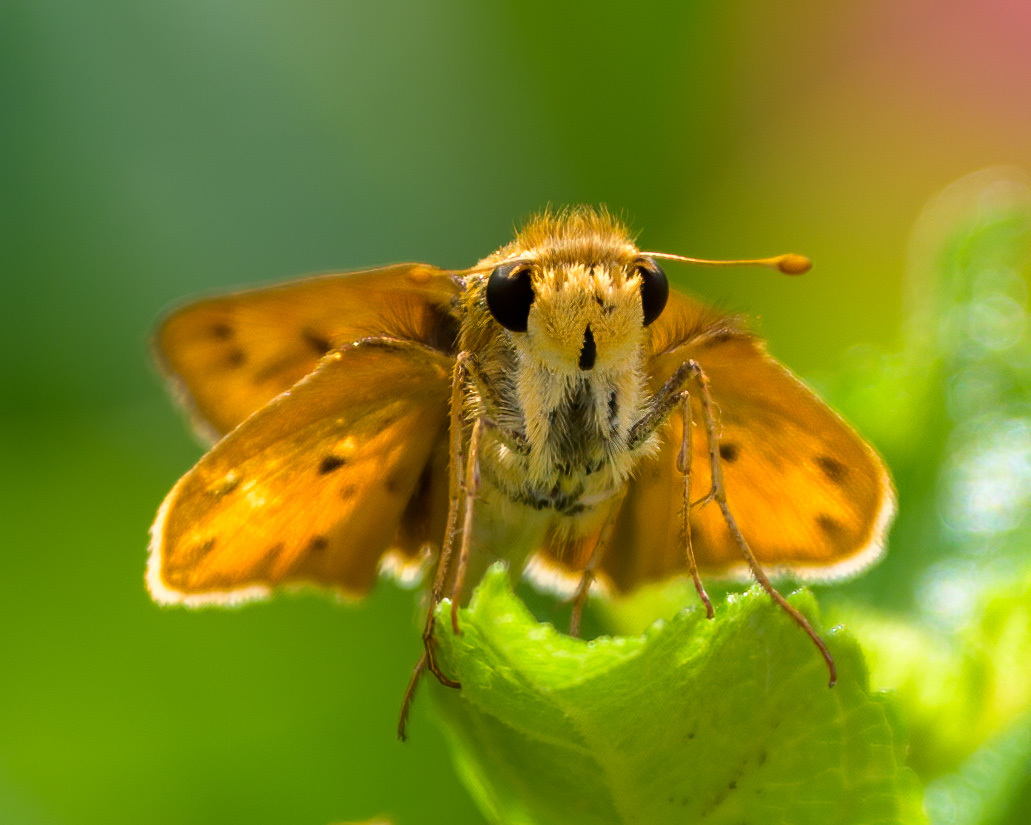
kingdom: Animalia
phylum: Arthropoda
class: Insecta
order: Lepidoptera
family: Hesperiidae
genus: Hylephila
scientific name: Hylephila phyleus
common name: Fiery skipper
